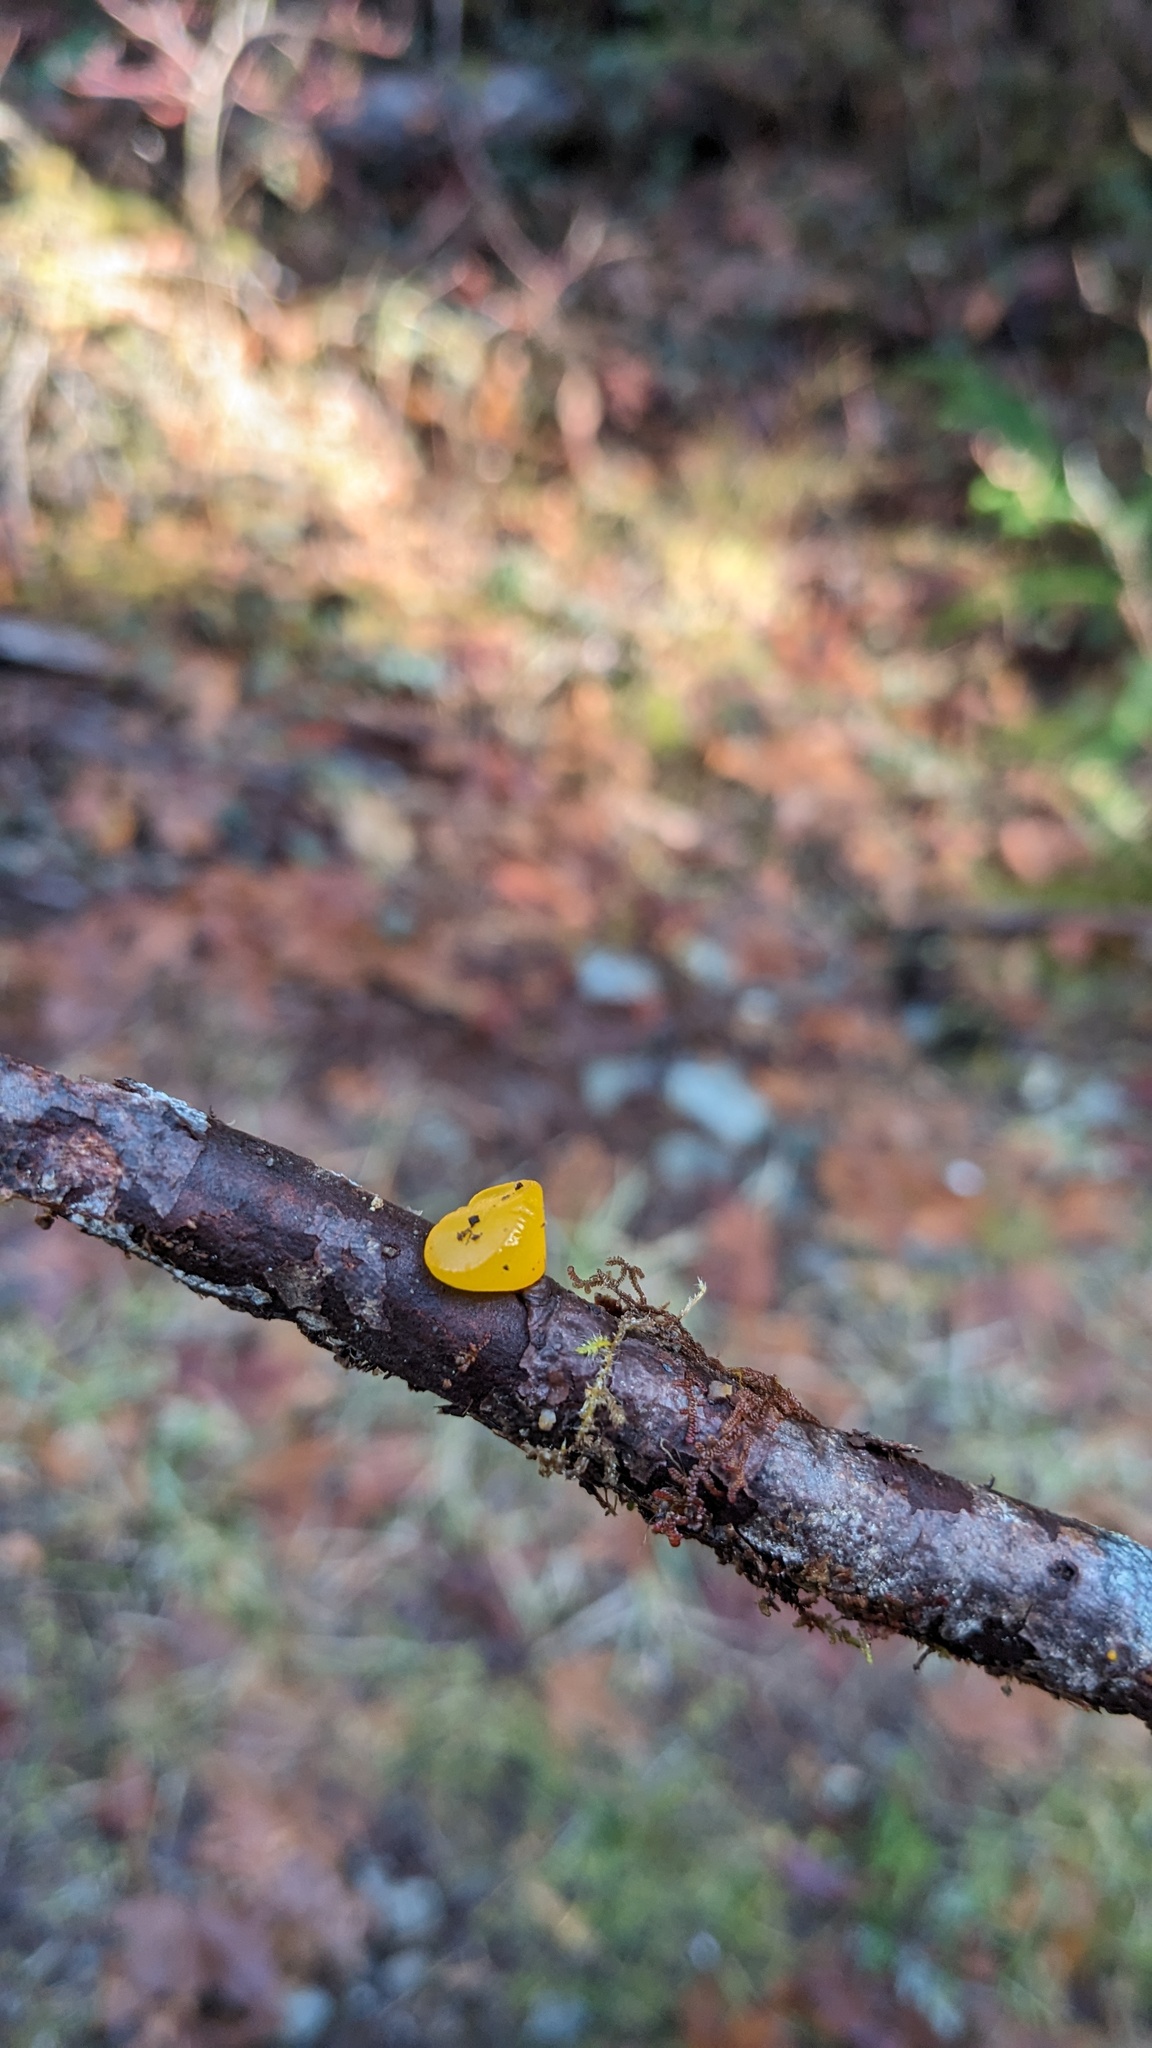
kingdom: Fungi
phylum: Basidiomycota
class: Dacrymycetes
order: Dacrymycetales
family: Dacrymycetaceae
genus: Guepiniopsis
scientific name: Guepiniopsis alpina
